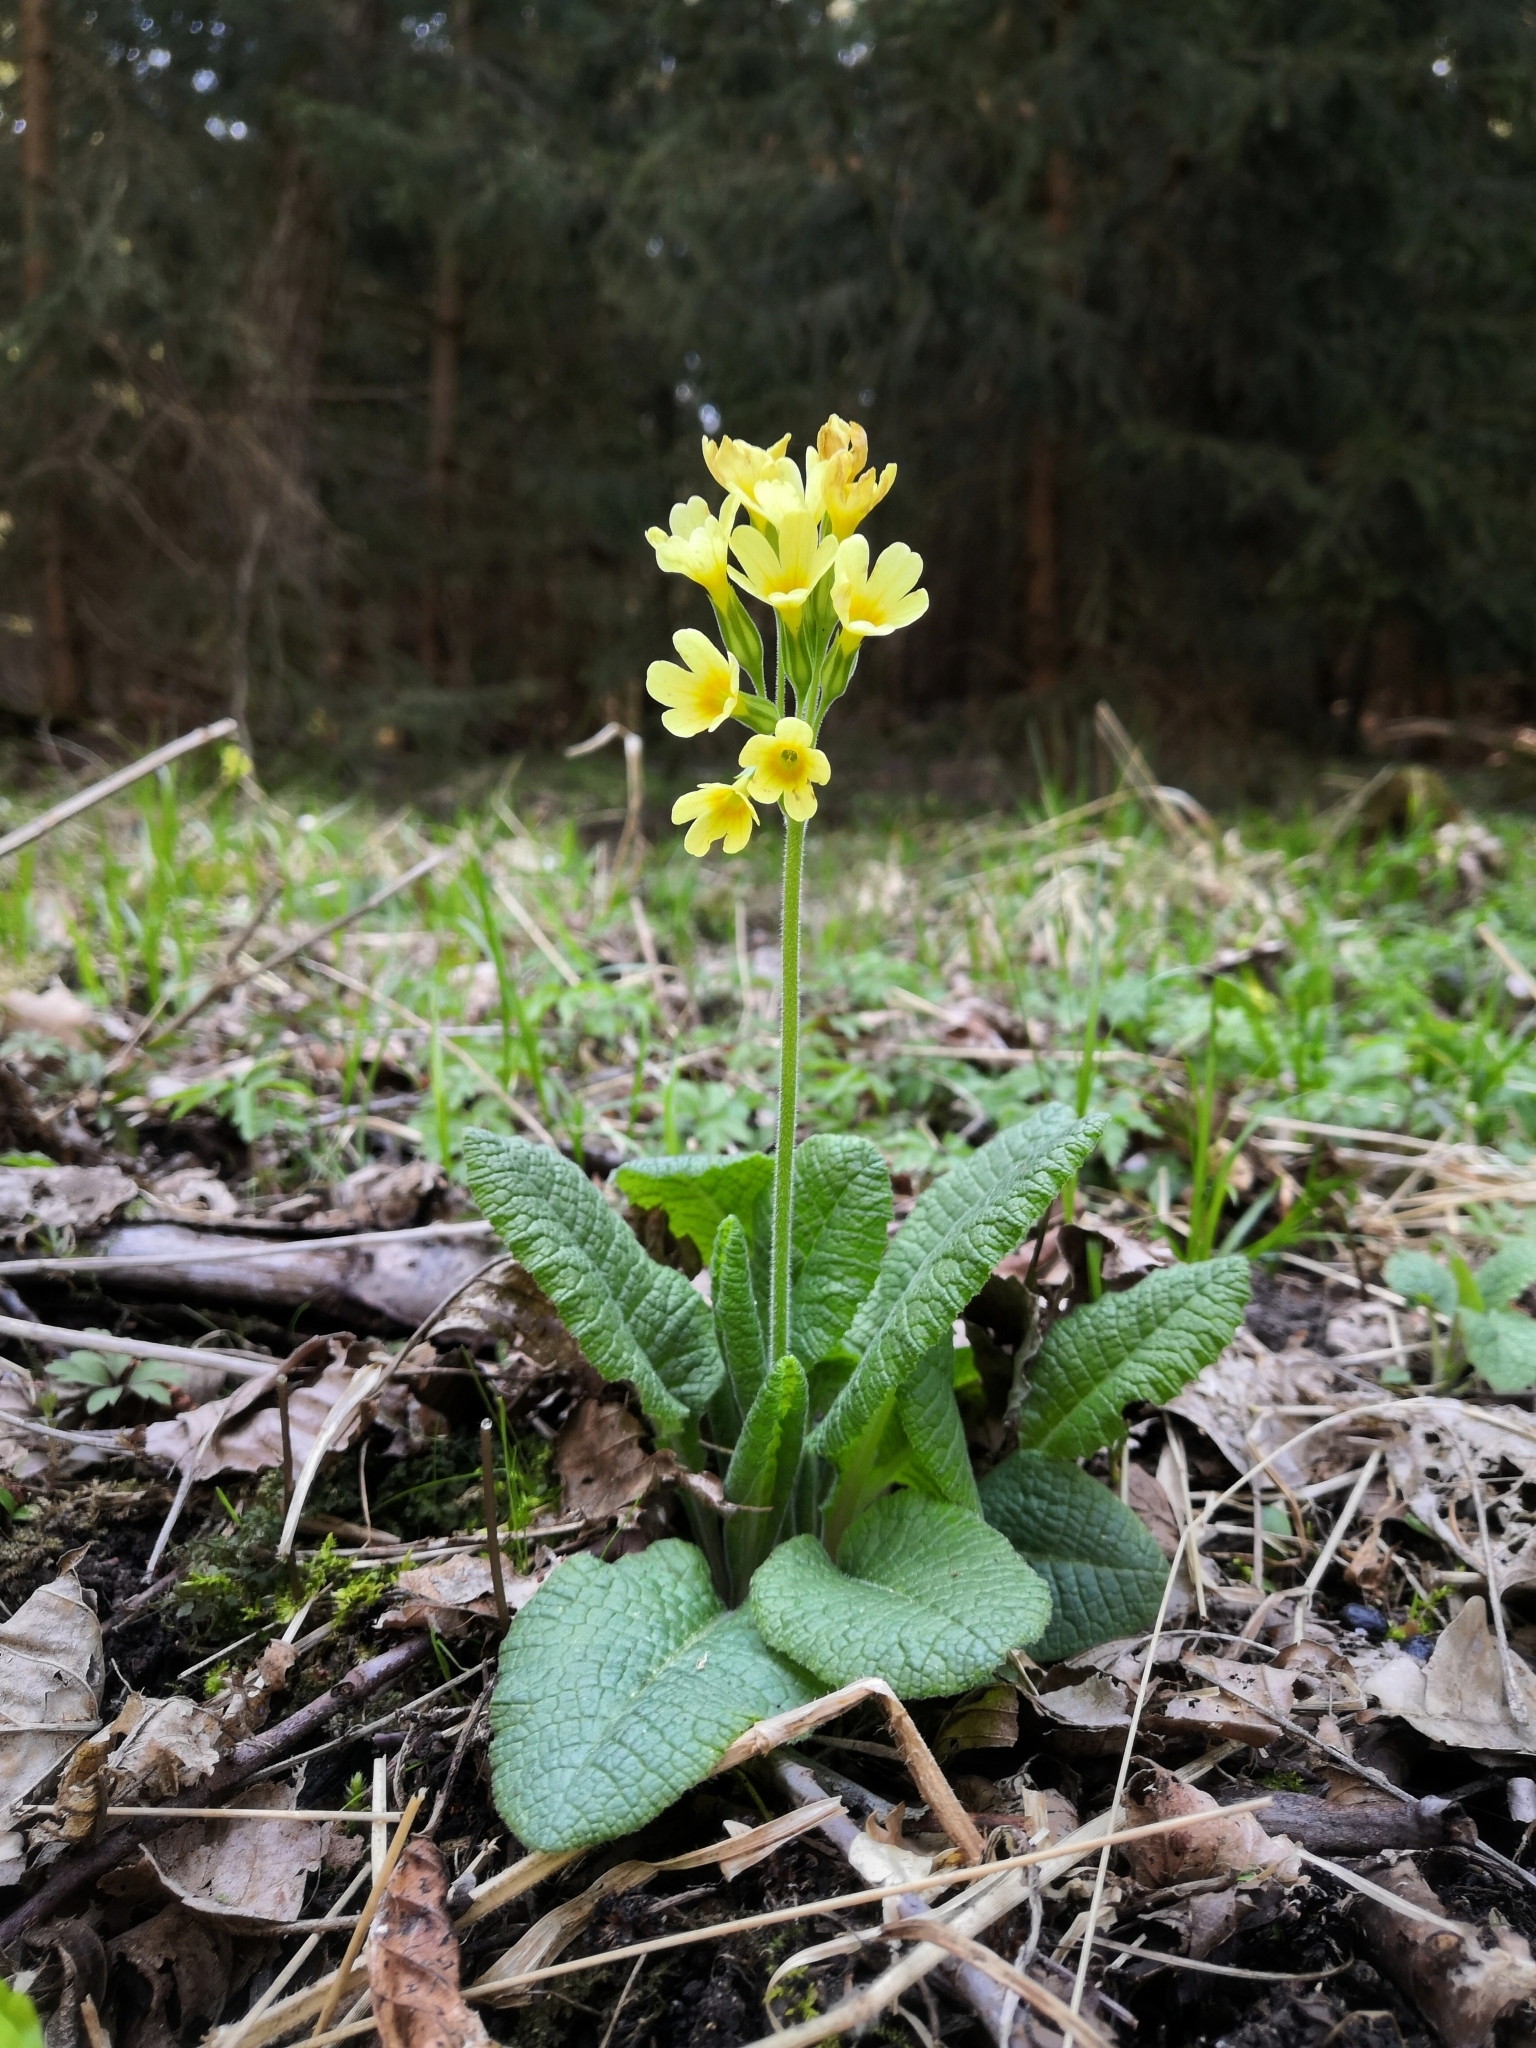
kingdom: Plantae
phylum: Tracheophyta
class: Magnoliopsida
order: Ericales
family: Primulaceae
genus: Primula
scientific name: Primula elatior
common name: Oxlip
